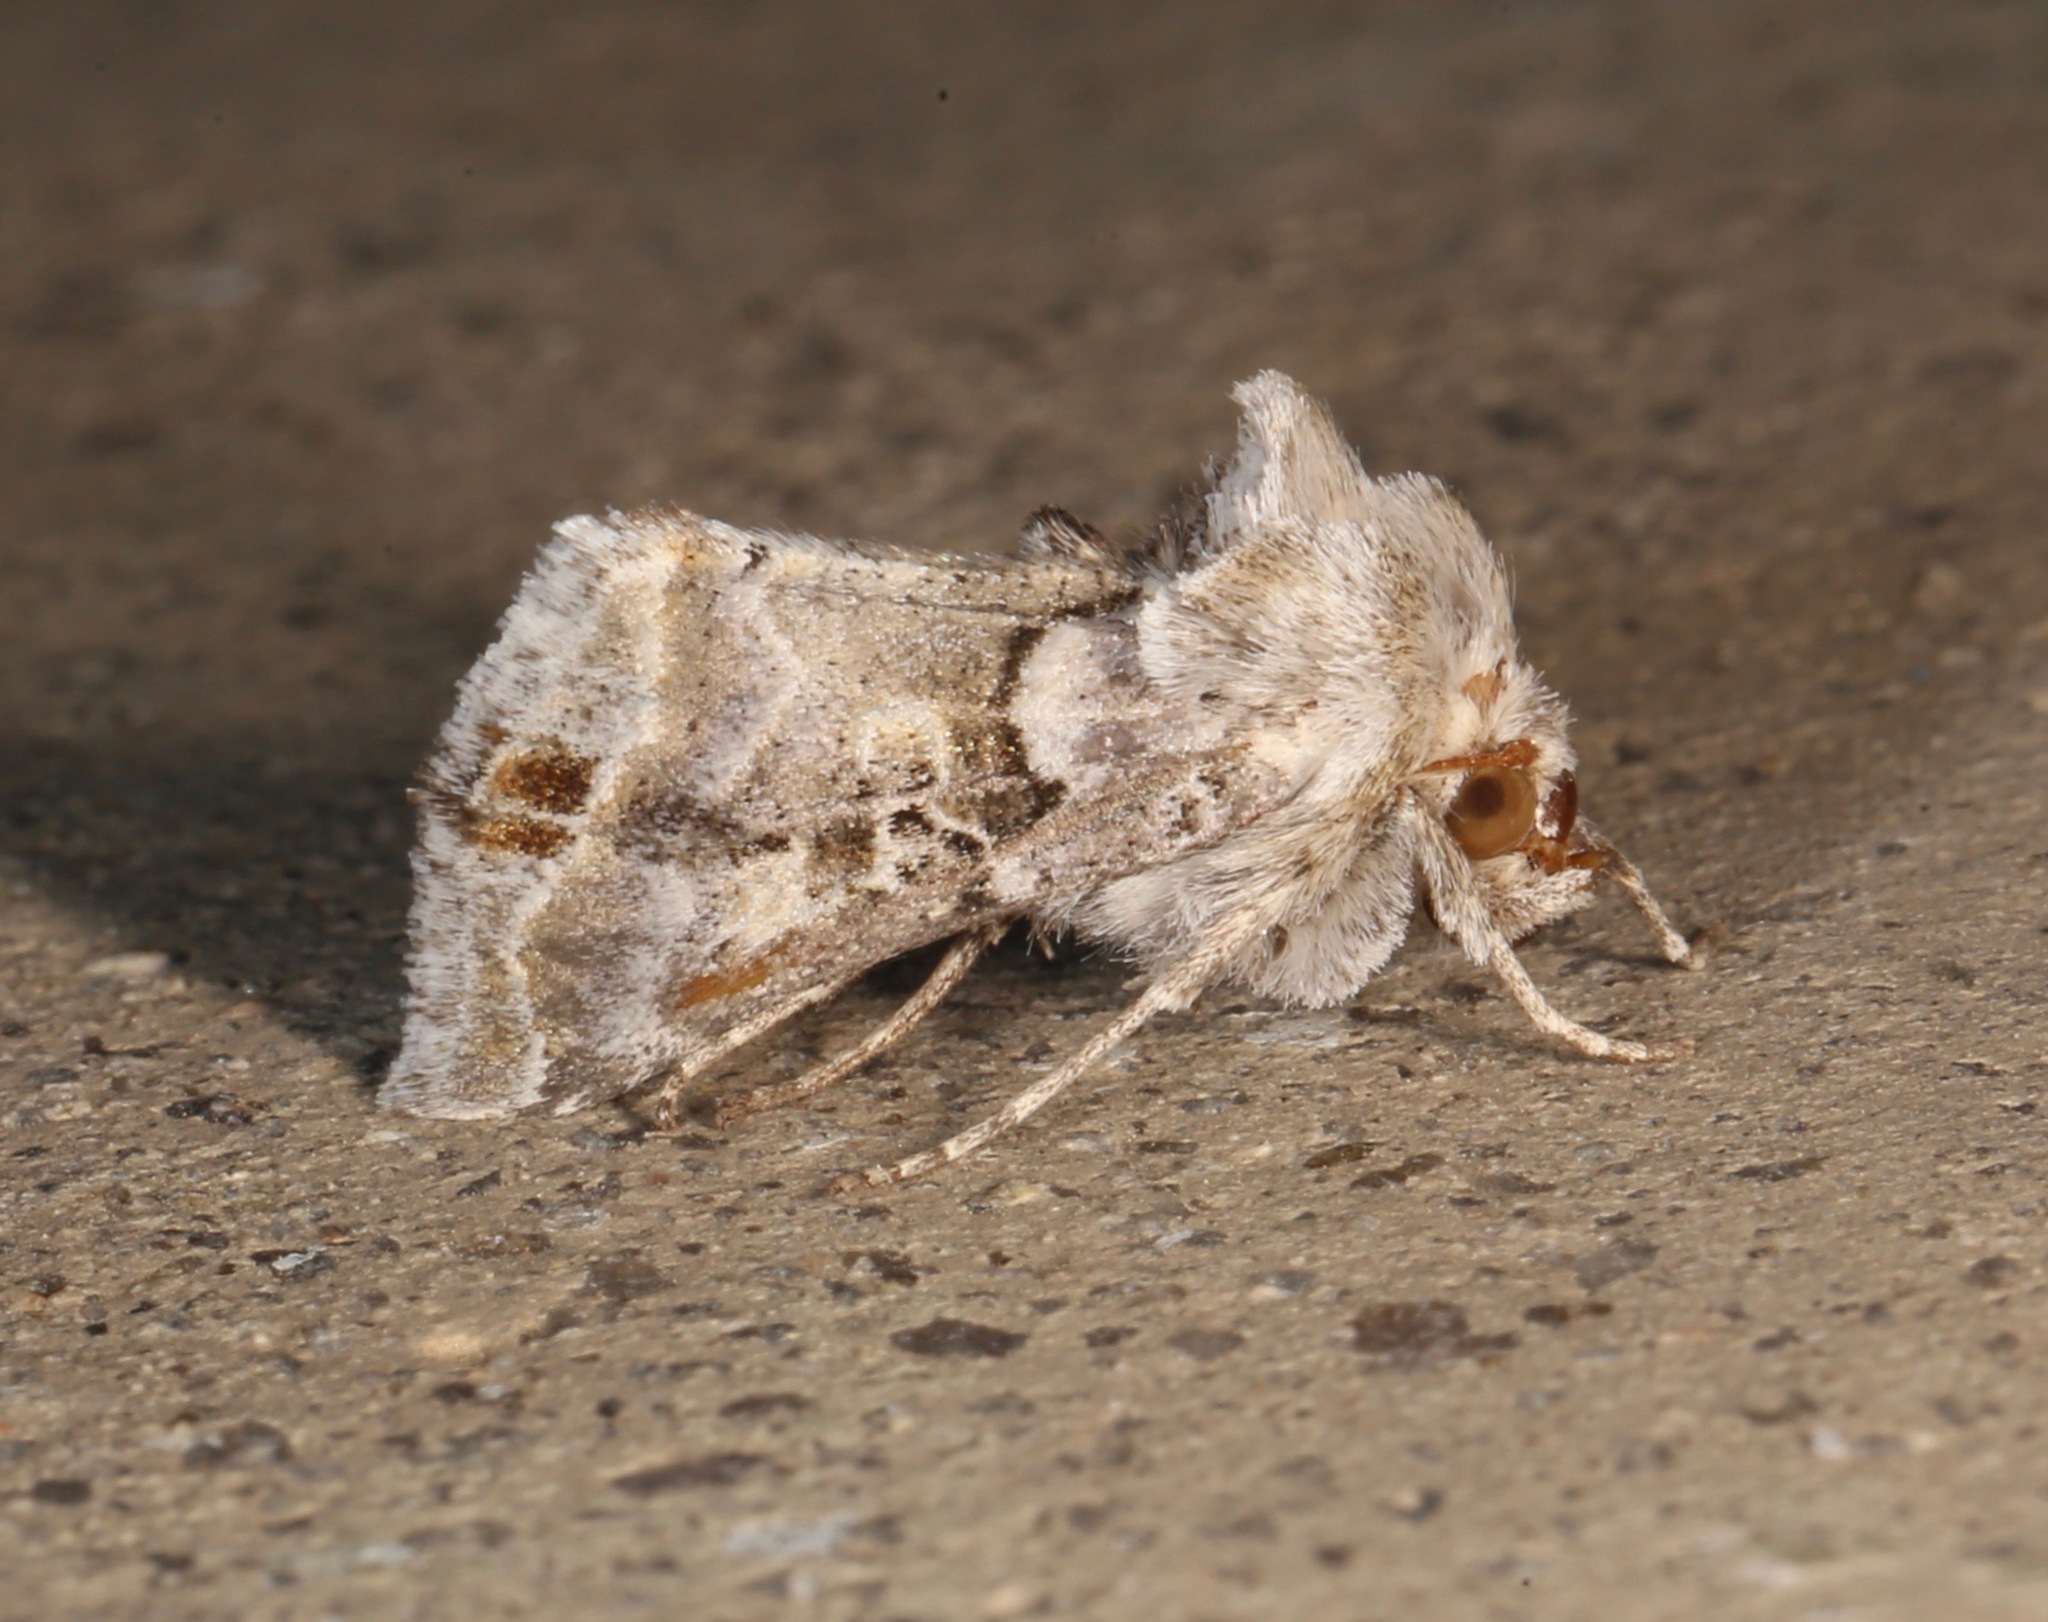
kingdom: Animalia
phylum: Arthropoda
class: Insecta
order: Lepidoptera
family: Noctuidae
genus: Euchalcia
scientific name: Euchalcia albavitta
